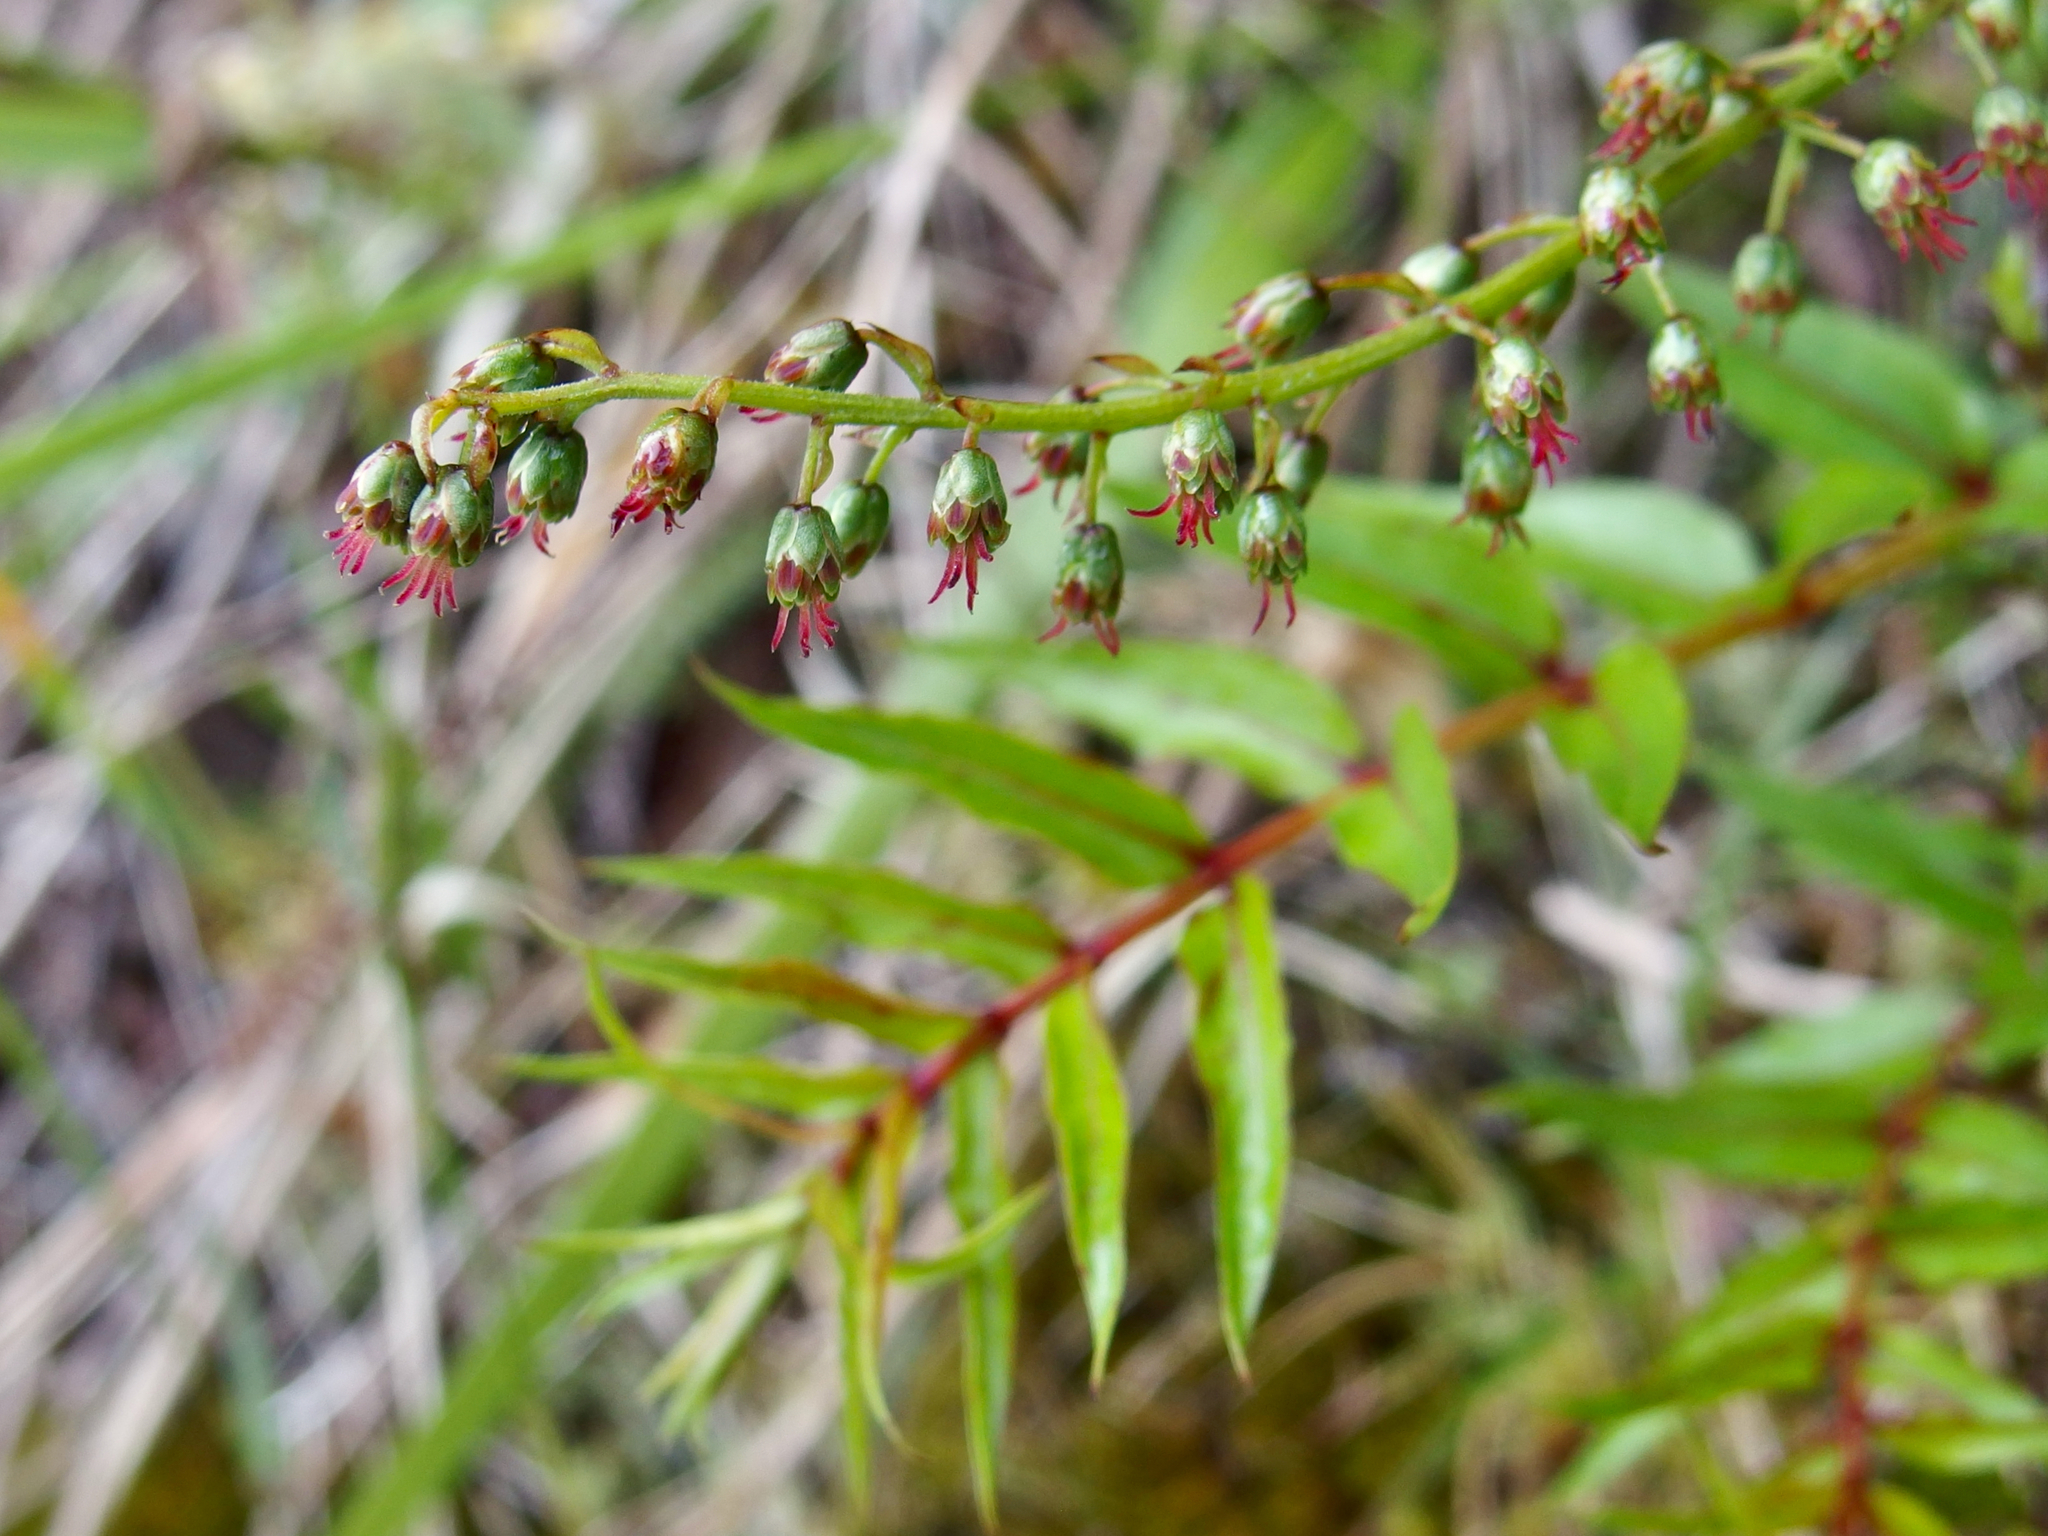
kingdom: Plantae
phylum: Tracheophyta
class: Magnoliopsida
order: Cucurbitales
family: Coriariaceae
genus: Coriaria
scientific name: Coriaria plumosa
